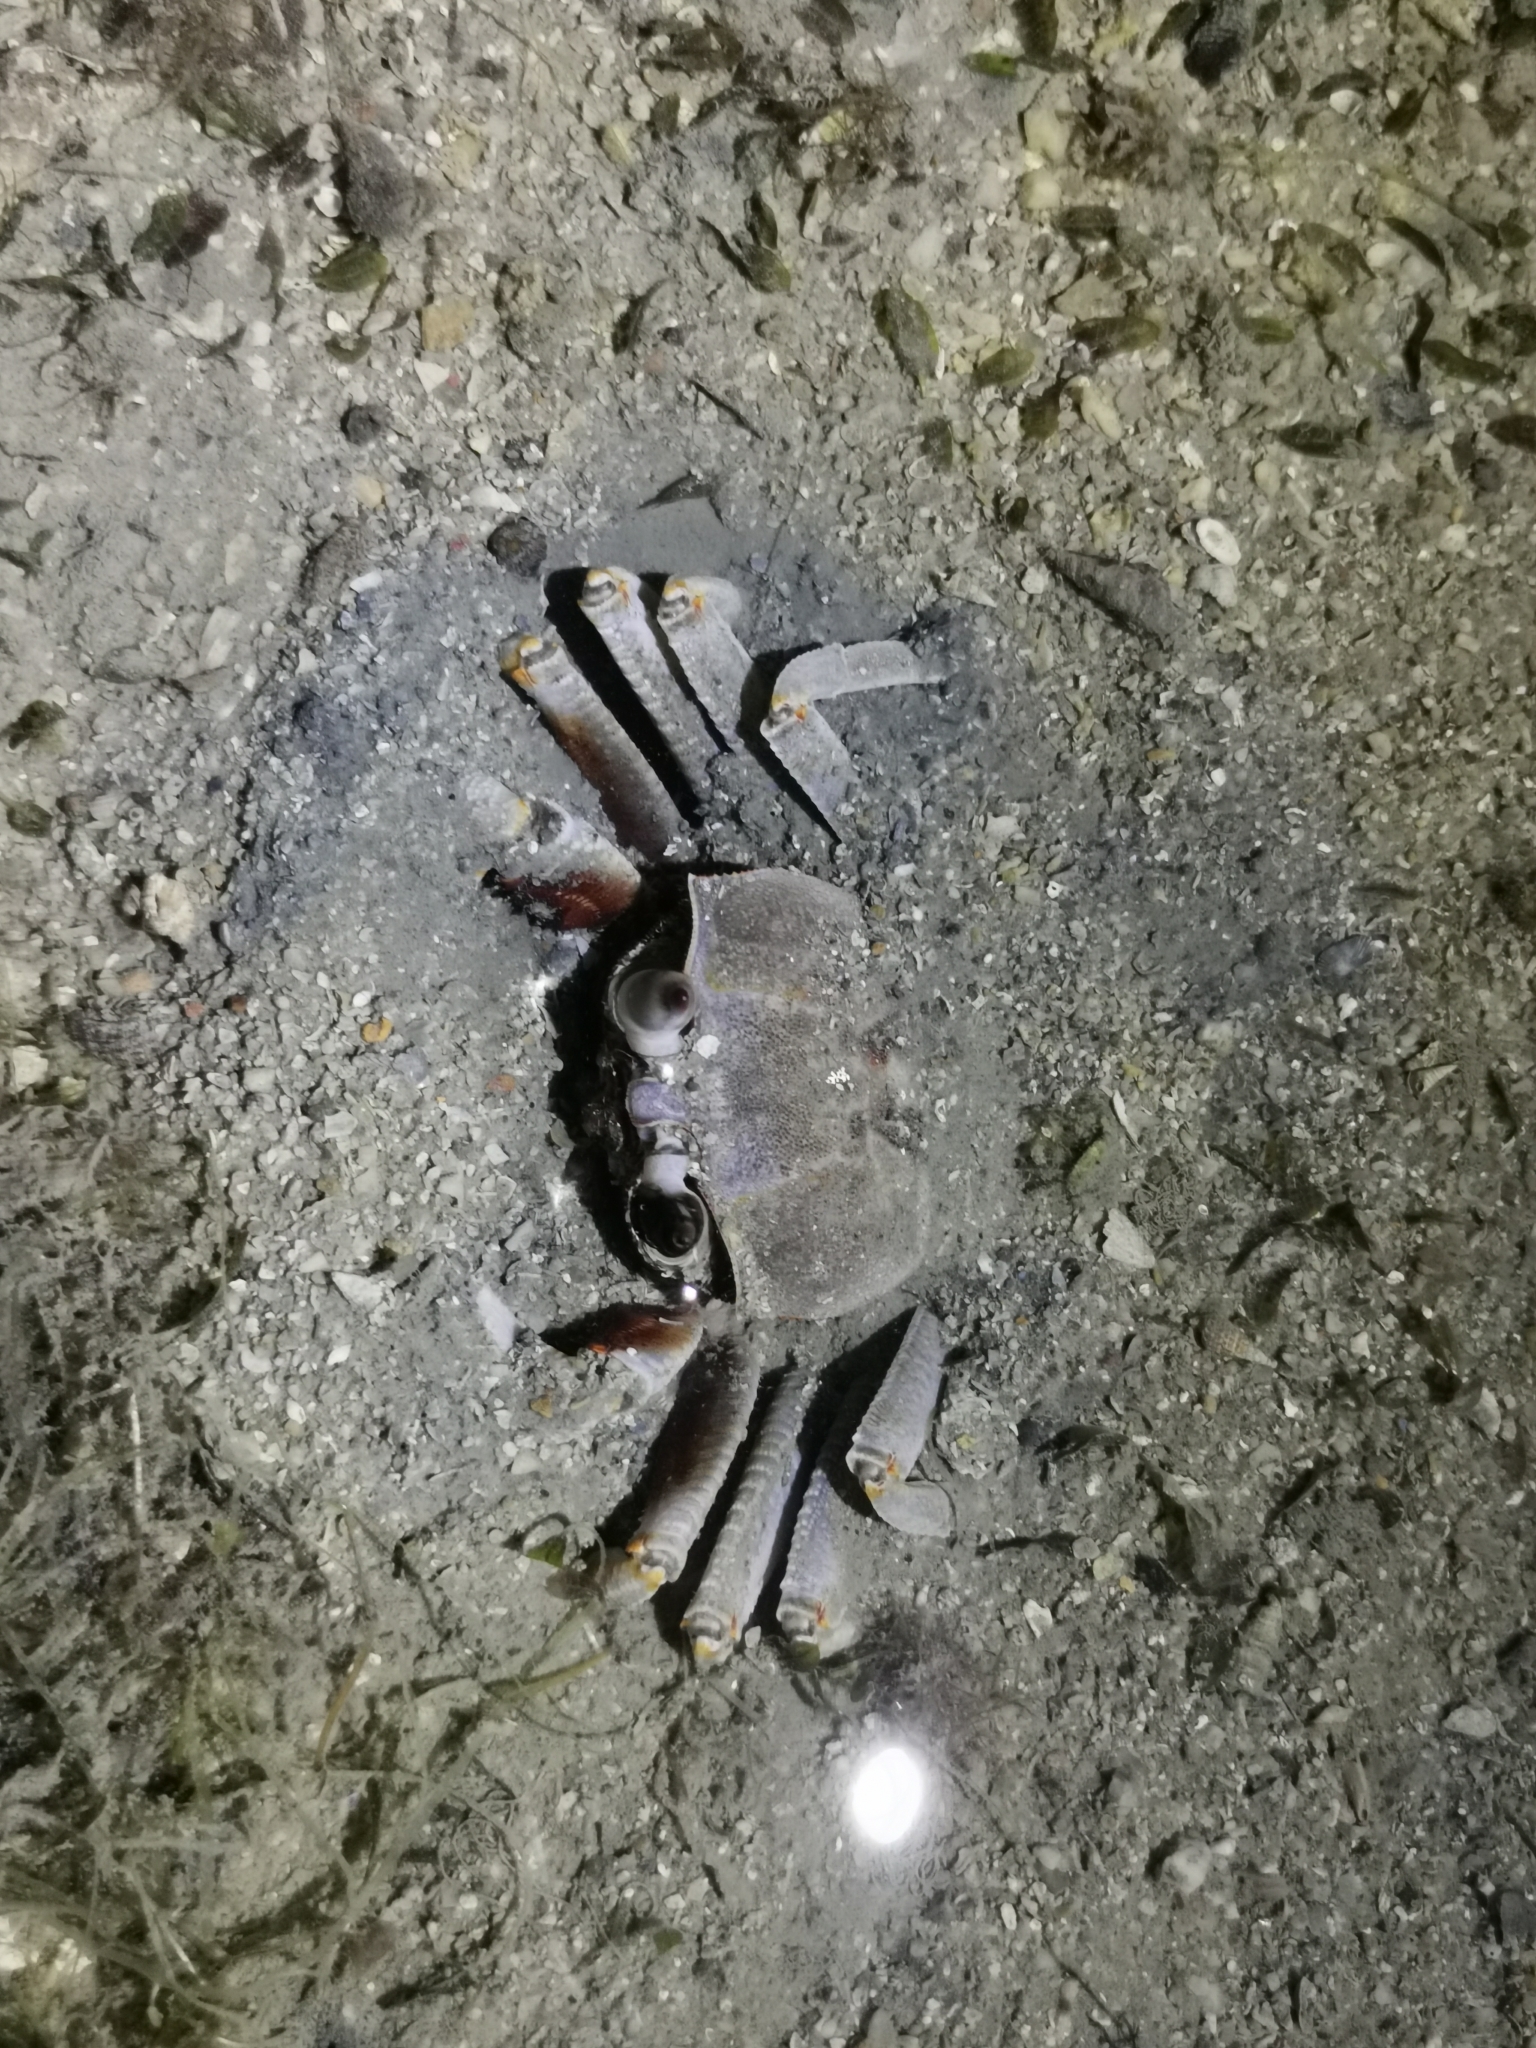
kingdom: Animalia
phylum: Arthropoda
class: Malacostraca
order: Decapoda
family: Ocypodidae
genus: Ocypode
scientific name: Ocypode ceratophthalmus
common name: Indo-pacific ghost crab
